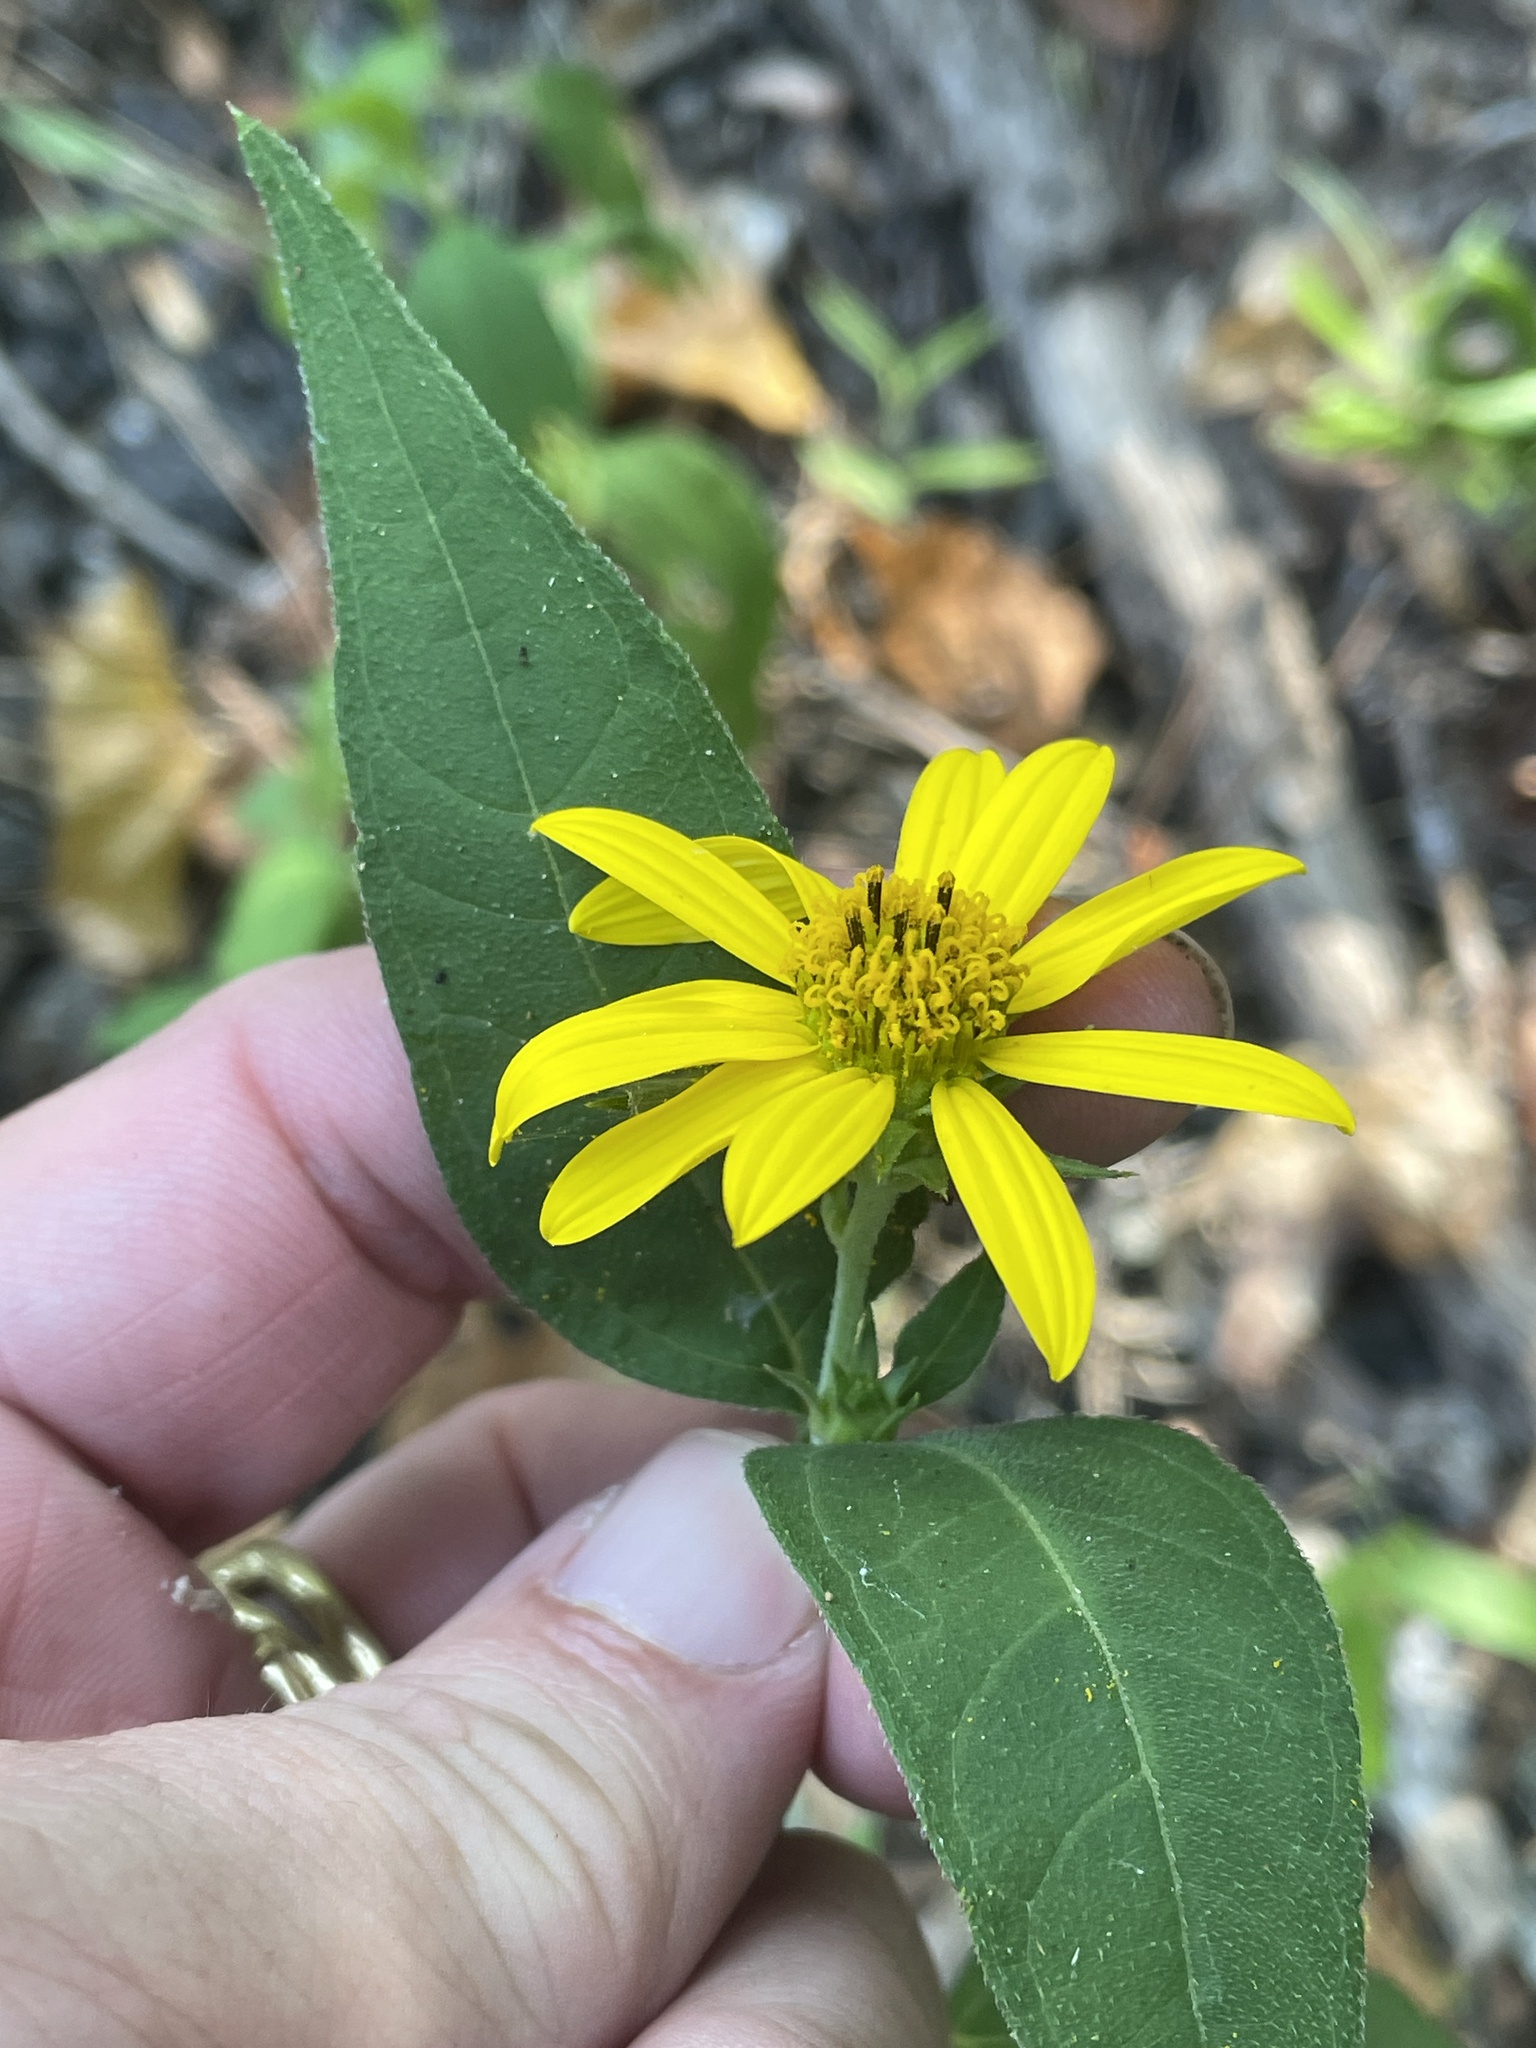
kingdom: Plantae
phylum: Tracheophyta
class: Magnoliopsida
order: Asterales
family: Asteraceae
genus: Helianthus
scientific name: Helianthus hirsutus
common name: Hairy sunflower
